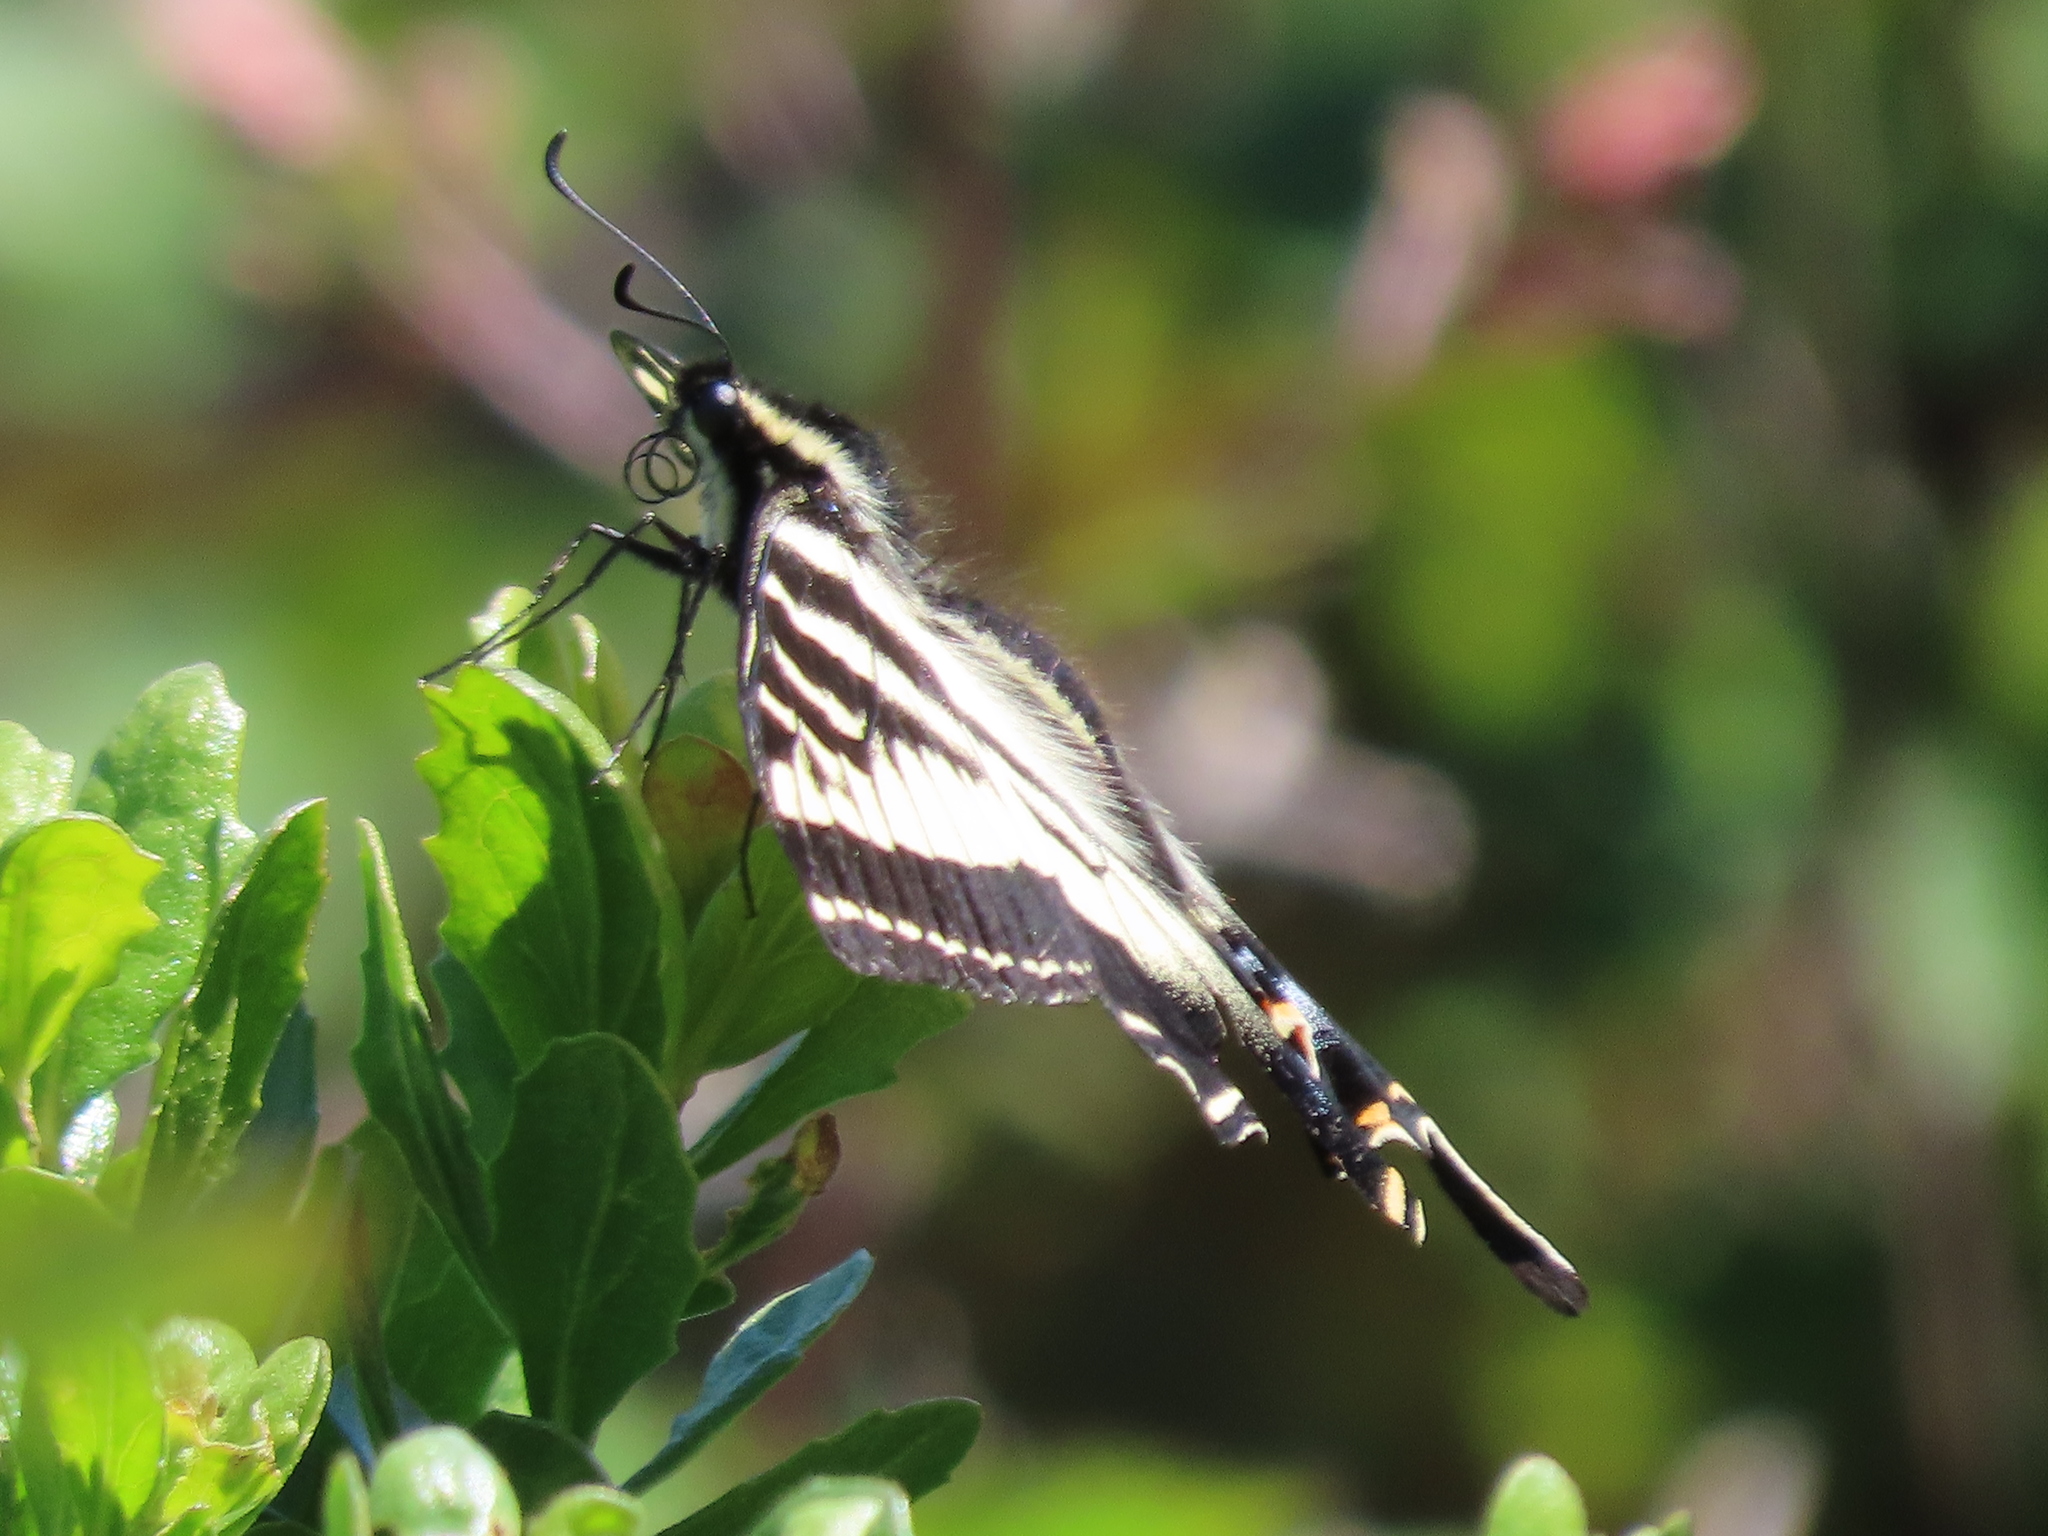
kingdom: Animalia
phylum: Arthropoda
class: Insecta
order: Lepidoptera
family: Papilionidae
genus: Papilio
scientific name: Papilio eurymedon
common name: Pale tiger swallowtail
